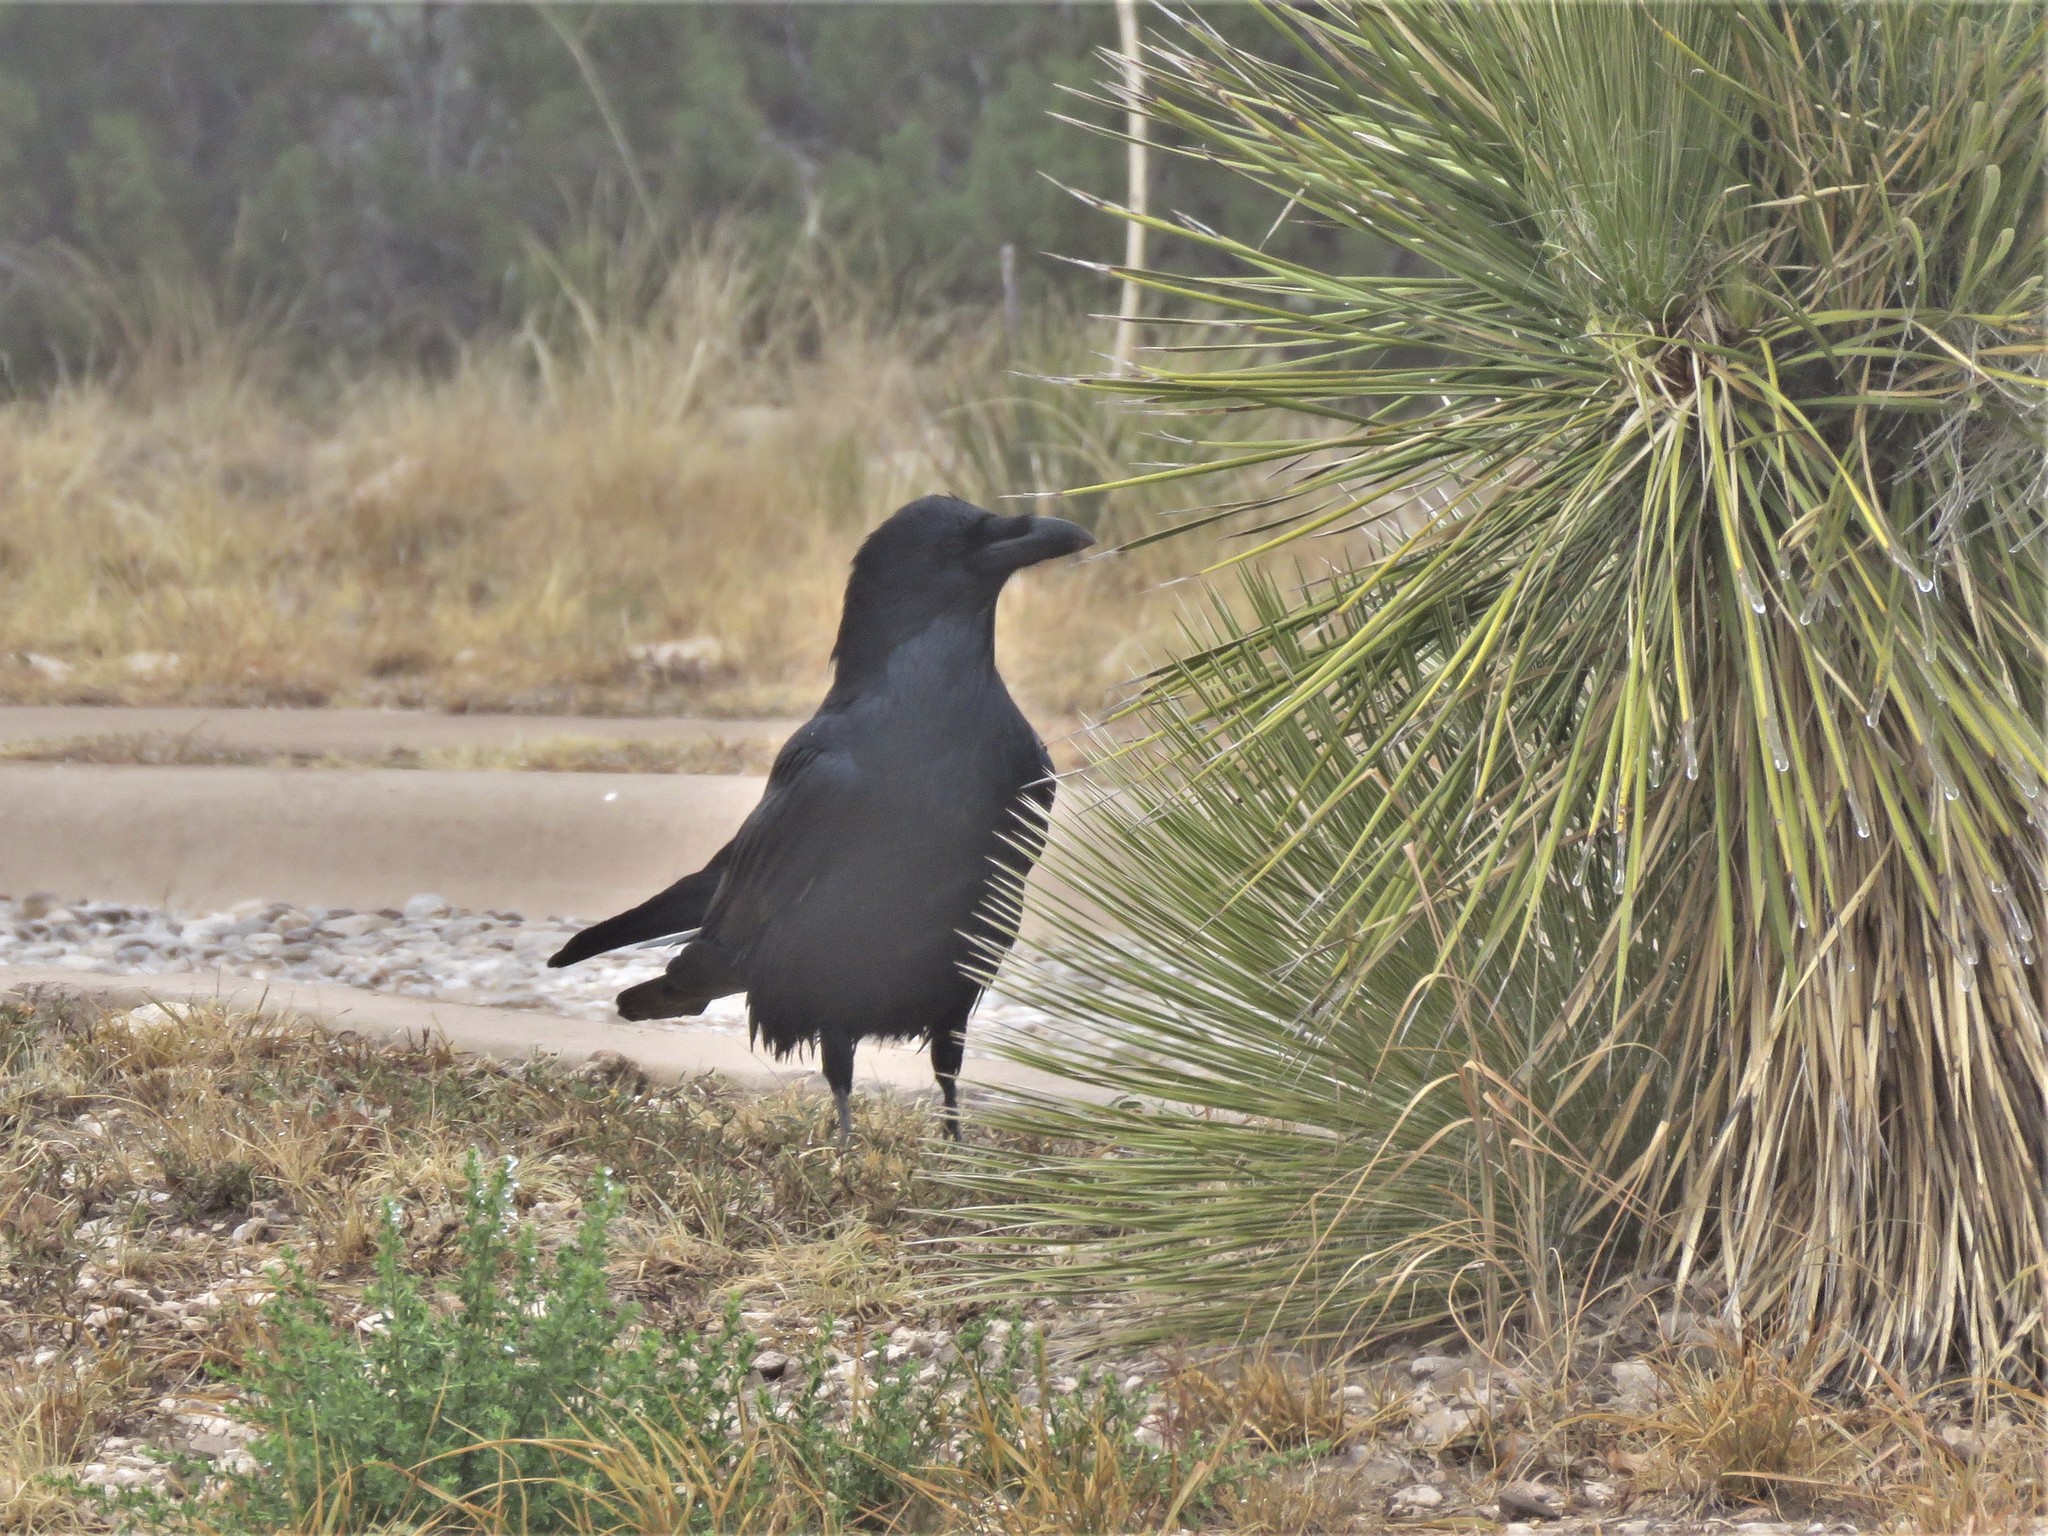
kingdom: Animalia
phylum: Chordata
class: Aves
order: Passeriformes
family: Corvidae
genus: Corvus
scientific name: Corvus corax
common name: Common raven
